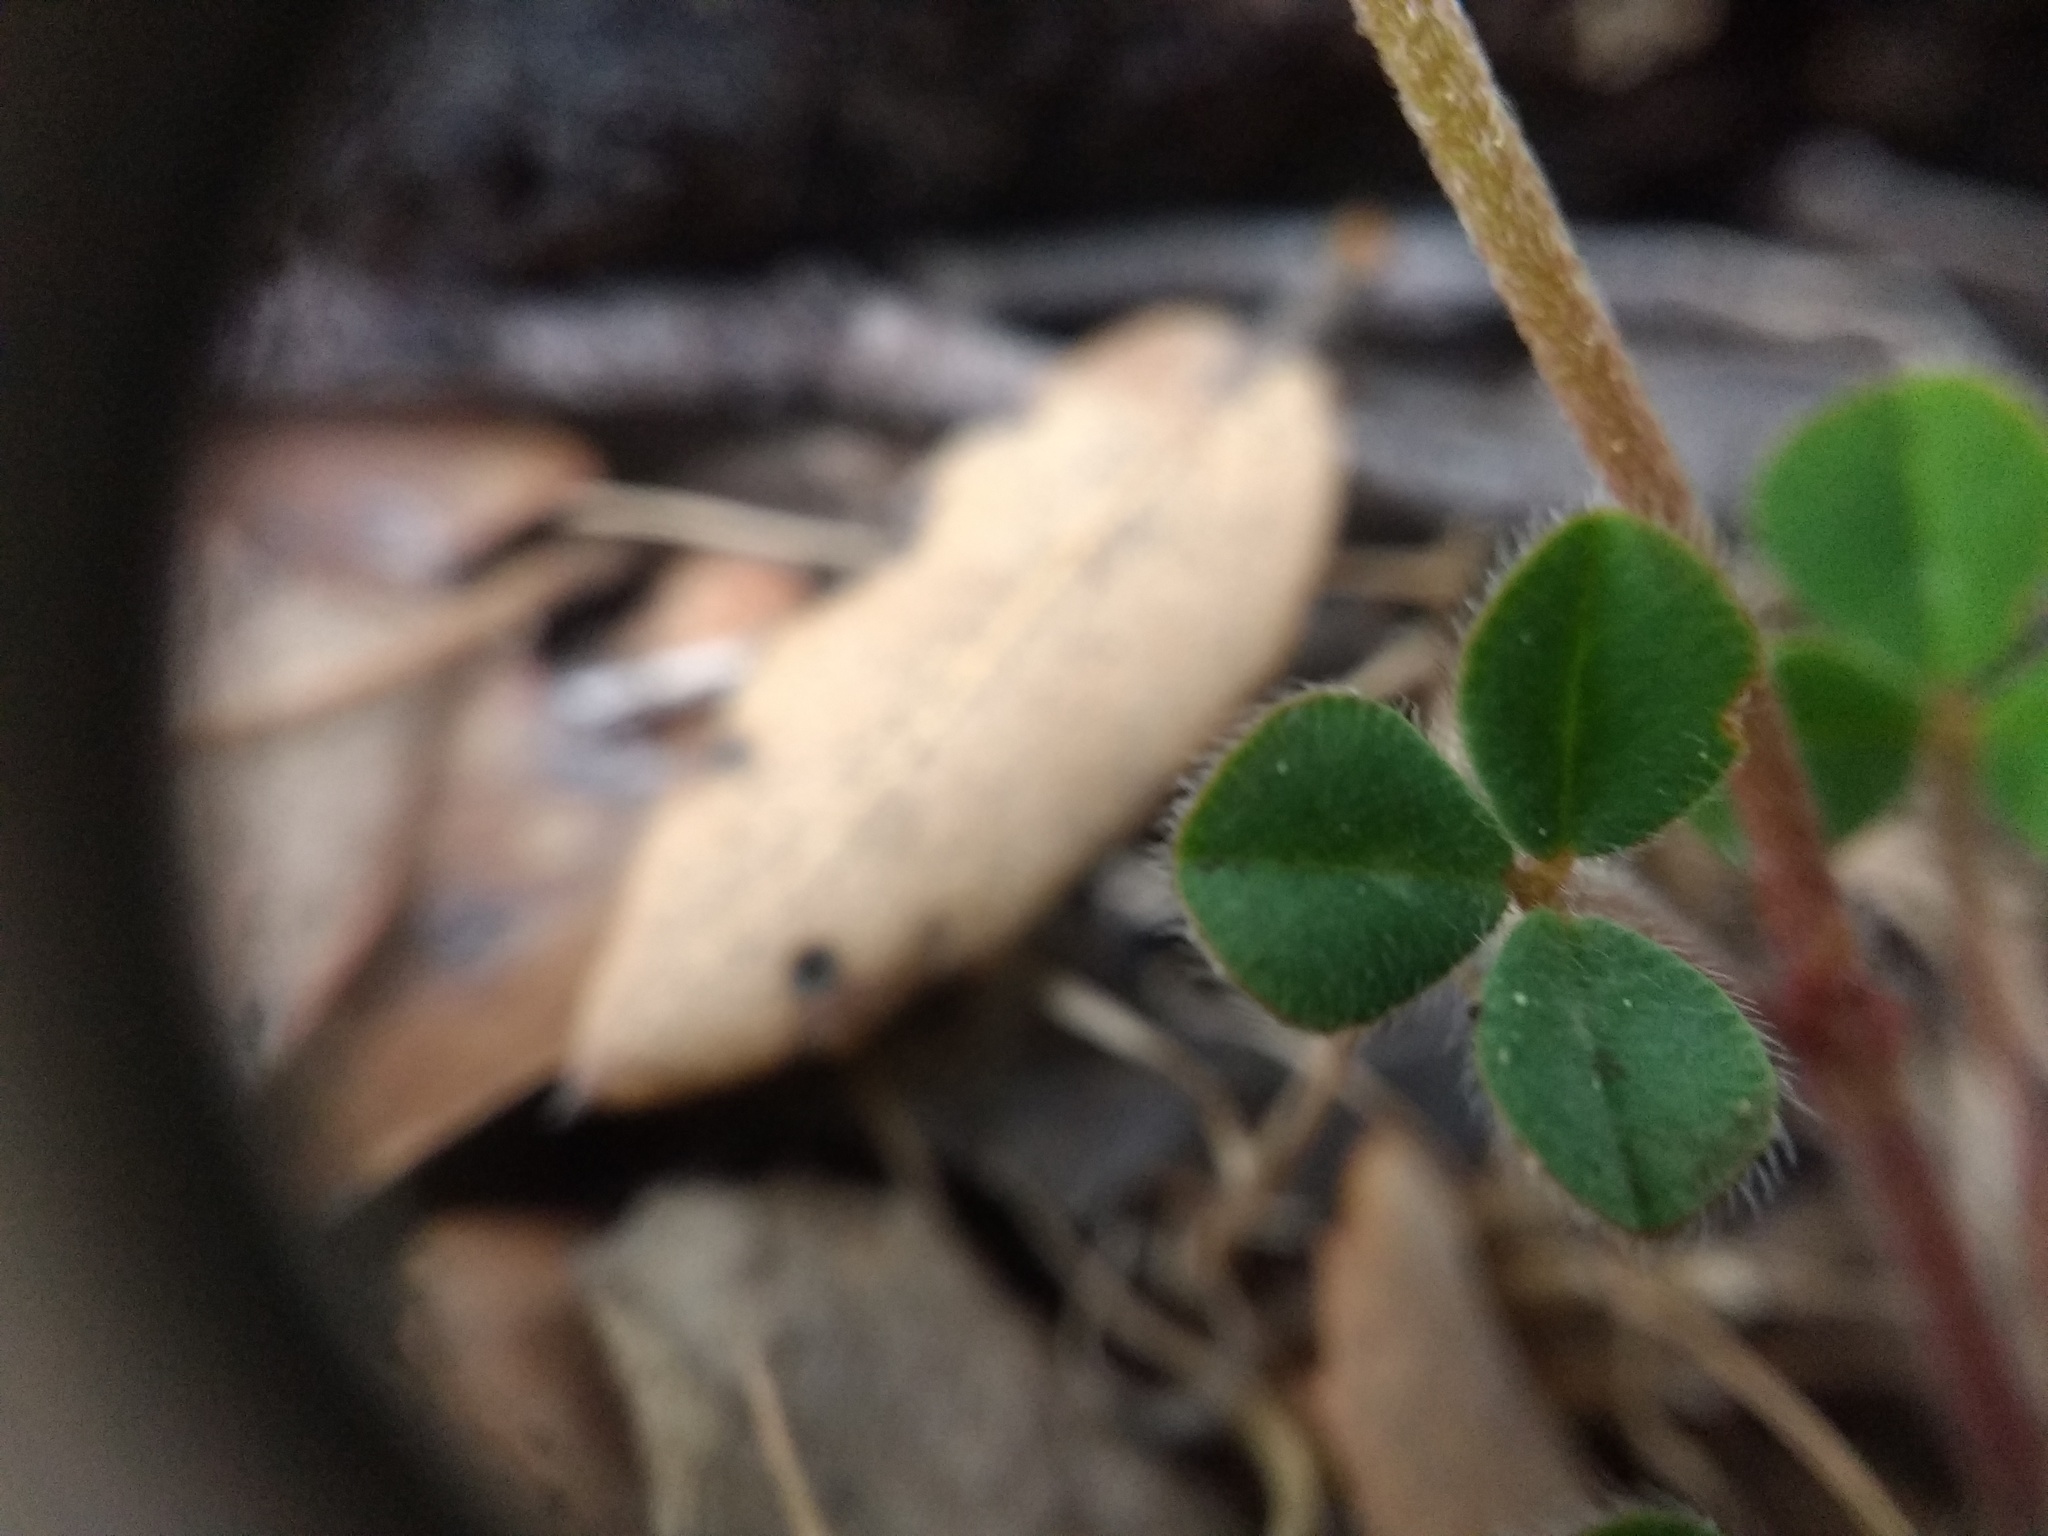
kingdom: Plantae
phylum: Tracheophyta
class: Magnoliopsida
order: Fabales
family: Fabaceae
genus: Trifolium
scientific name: Trifolium scabrum
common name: Rough clover
